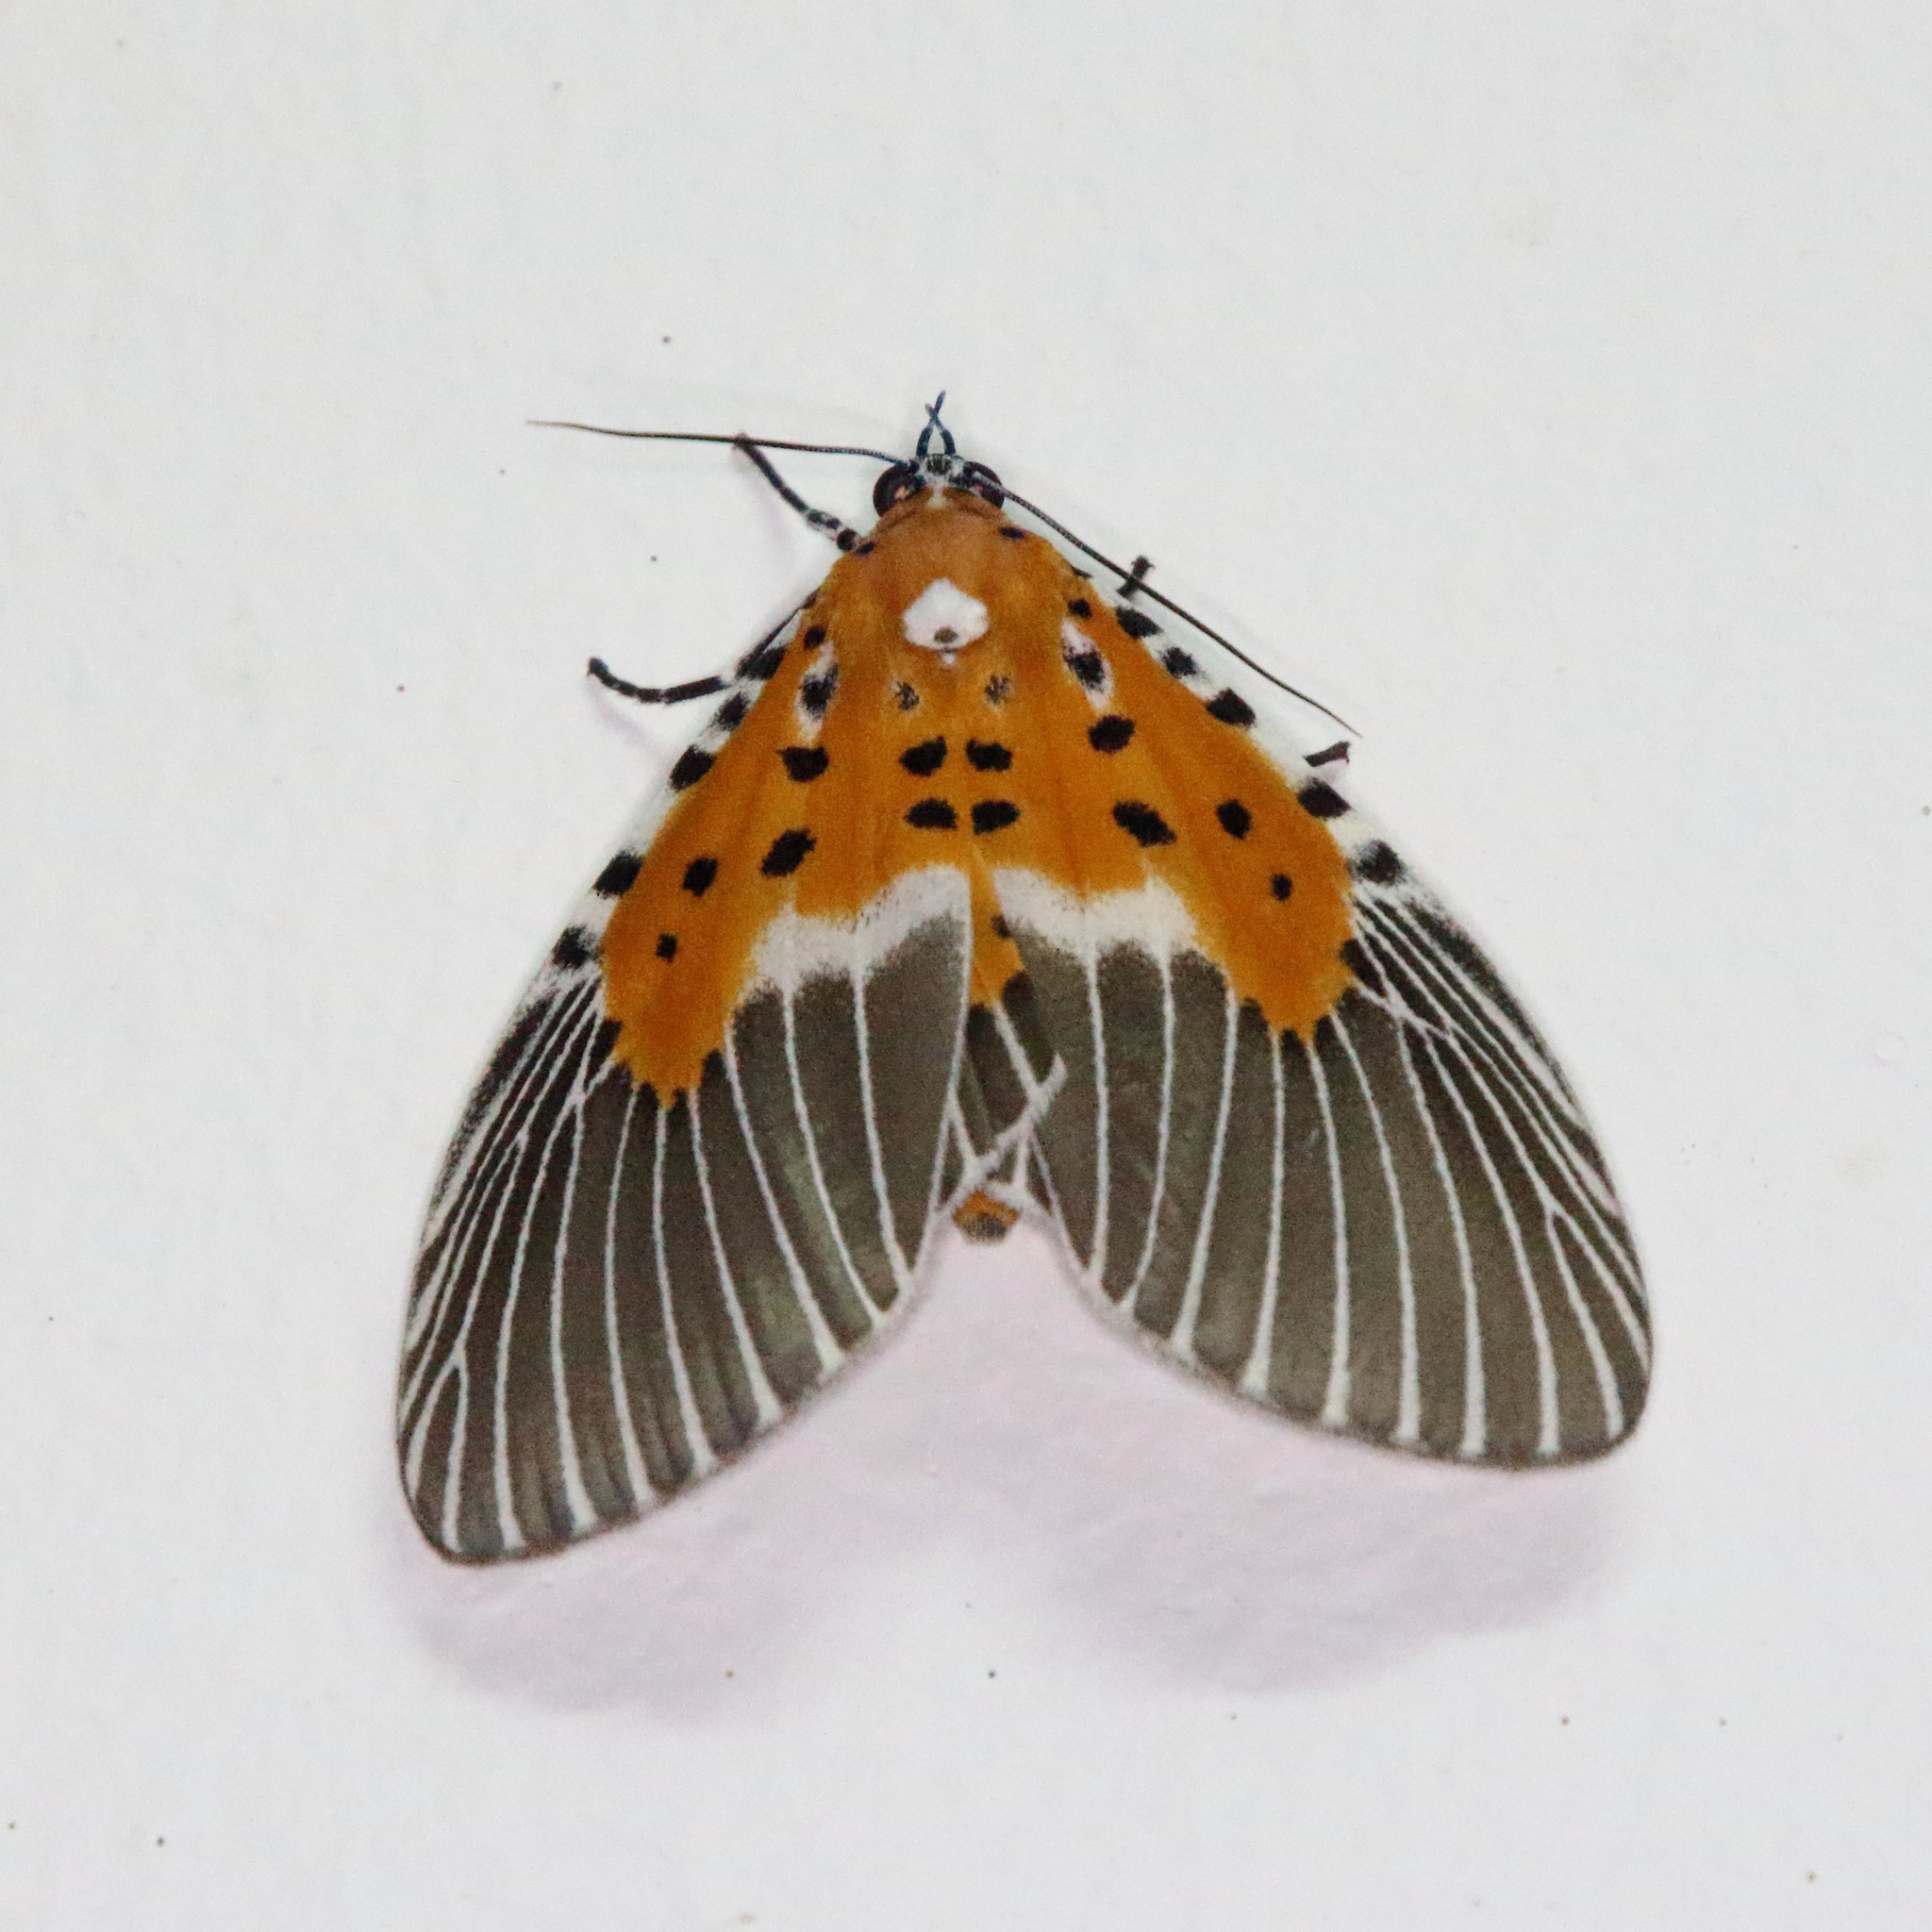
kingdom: Animalia
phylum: Arthropoda
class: Insecta
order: Lepidoptera
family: Erebidae
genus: Peridrome
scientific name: Peridrome subfascia
